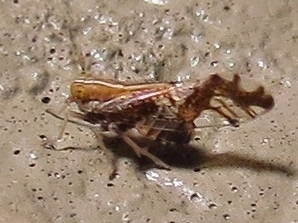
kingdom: Animalia
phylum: Arthropoda
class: Insecta
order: Hemiptera
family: Delphacidae
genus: Liburniella
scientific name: Liburniella ornata
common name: Ornate planthopper
